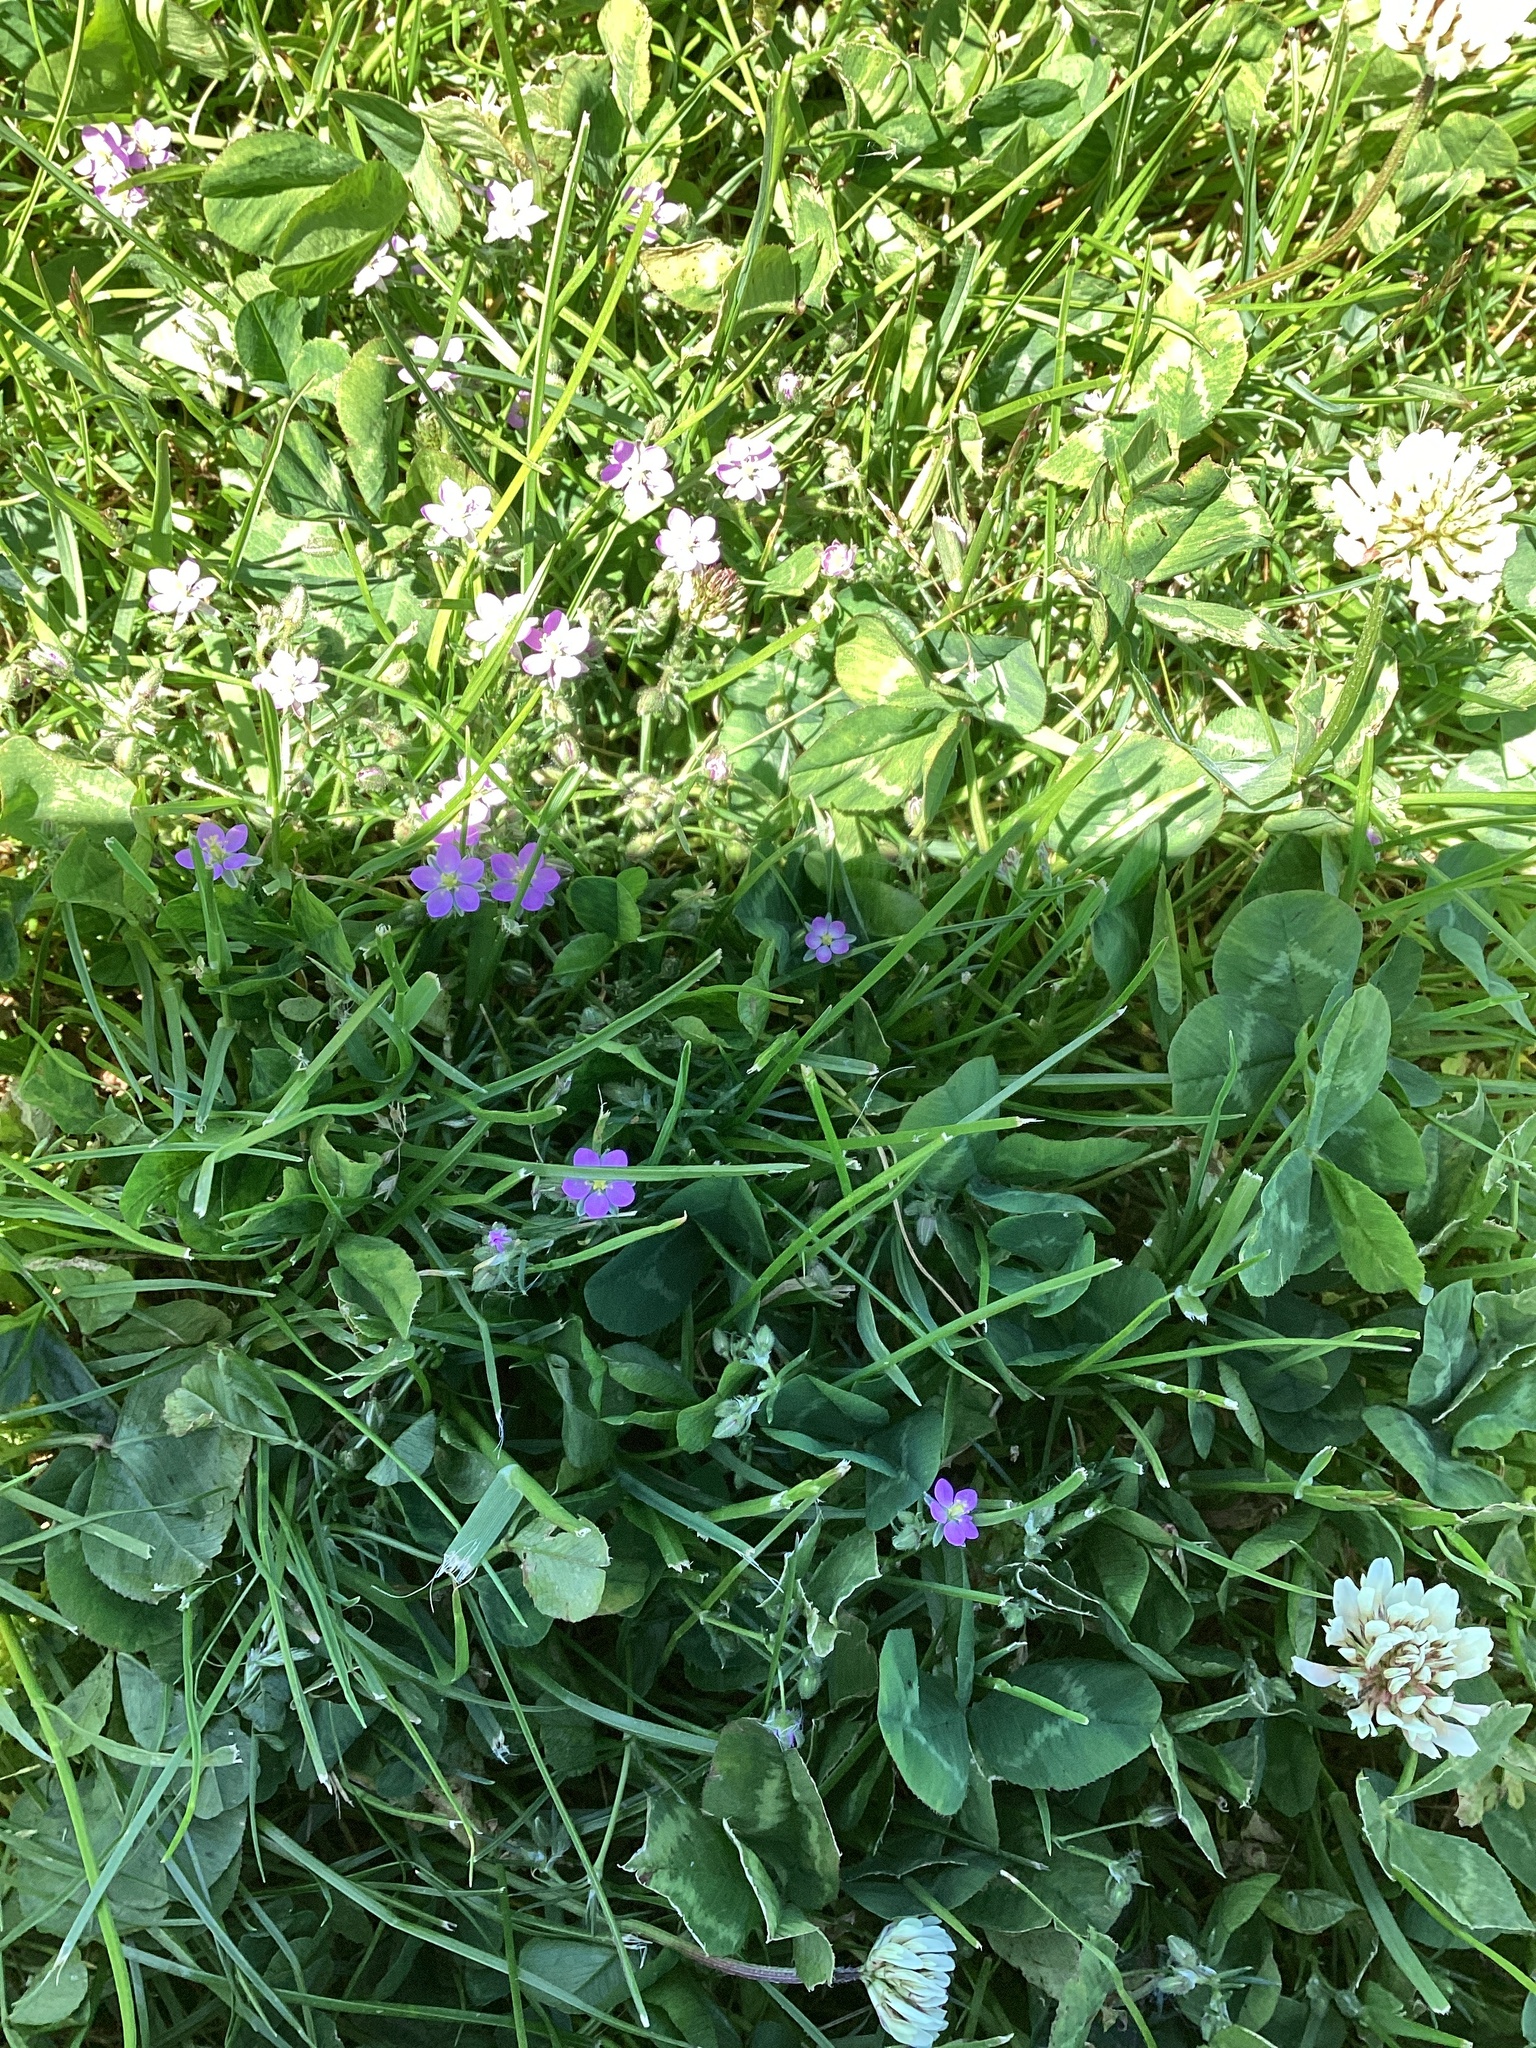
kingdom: Plantae
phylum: Tracheophyta
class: Magnoliopsida
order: Caryophyllales
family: Caryophyllaceae
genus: Spergularia
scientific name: Spergularia rubra
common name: Red sand-spurrey
